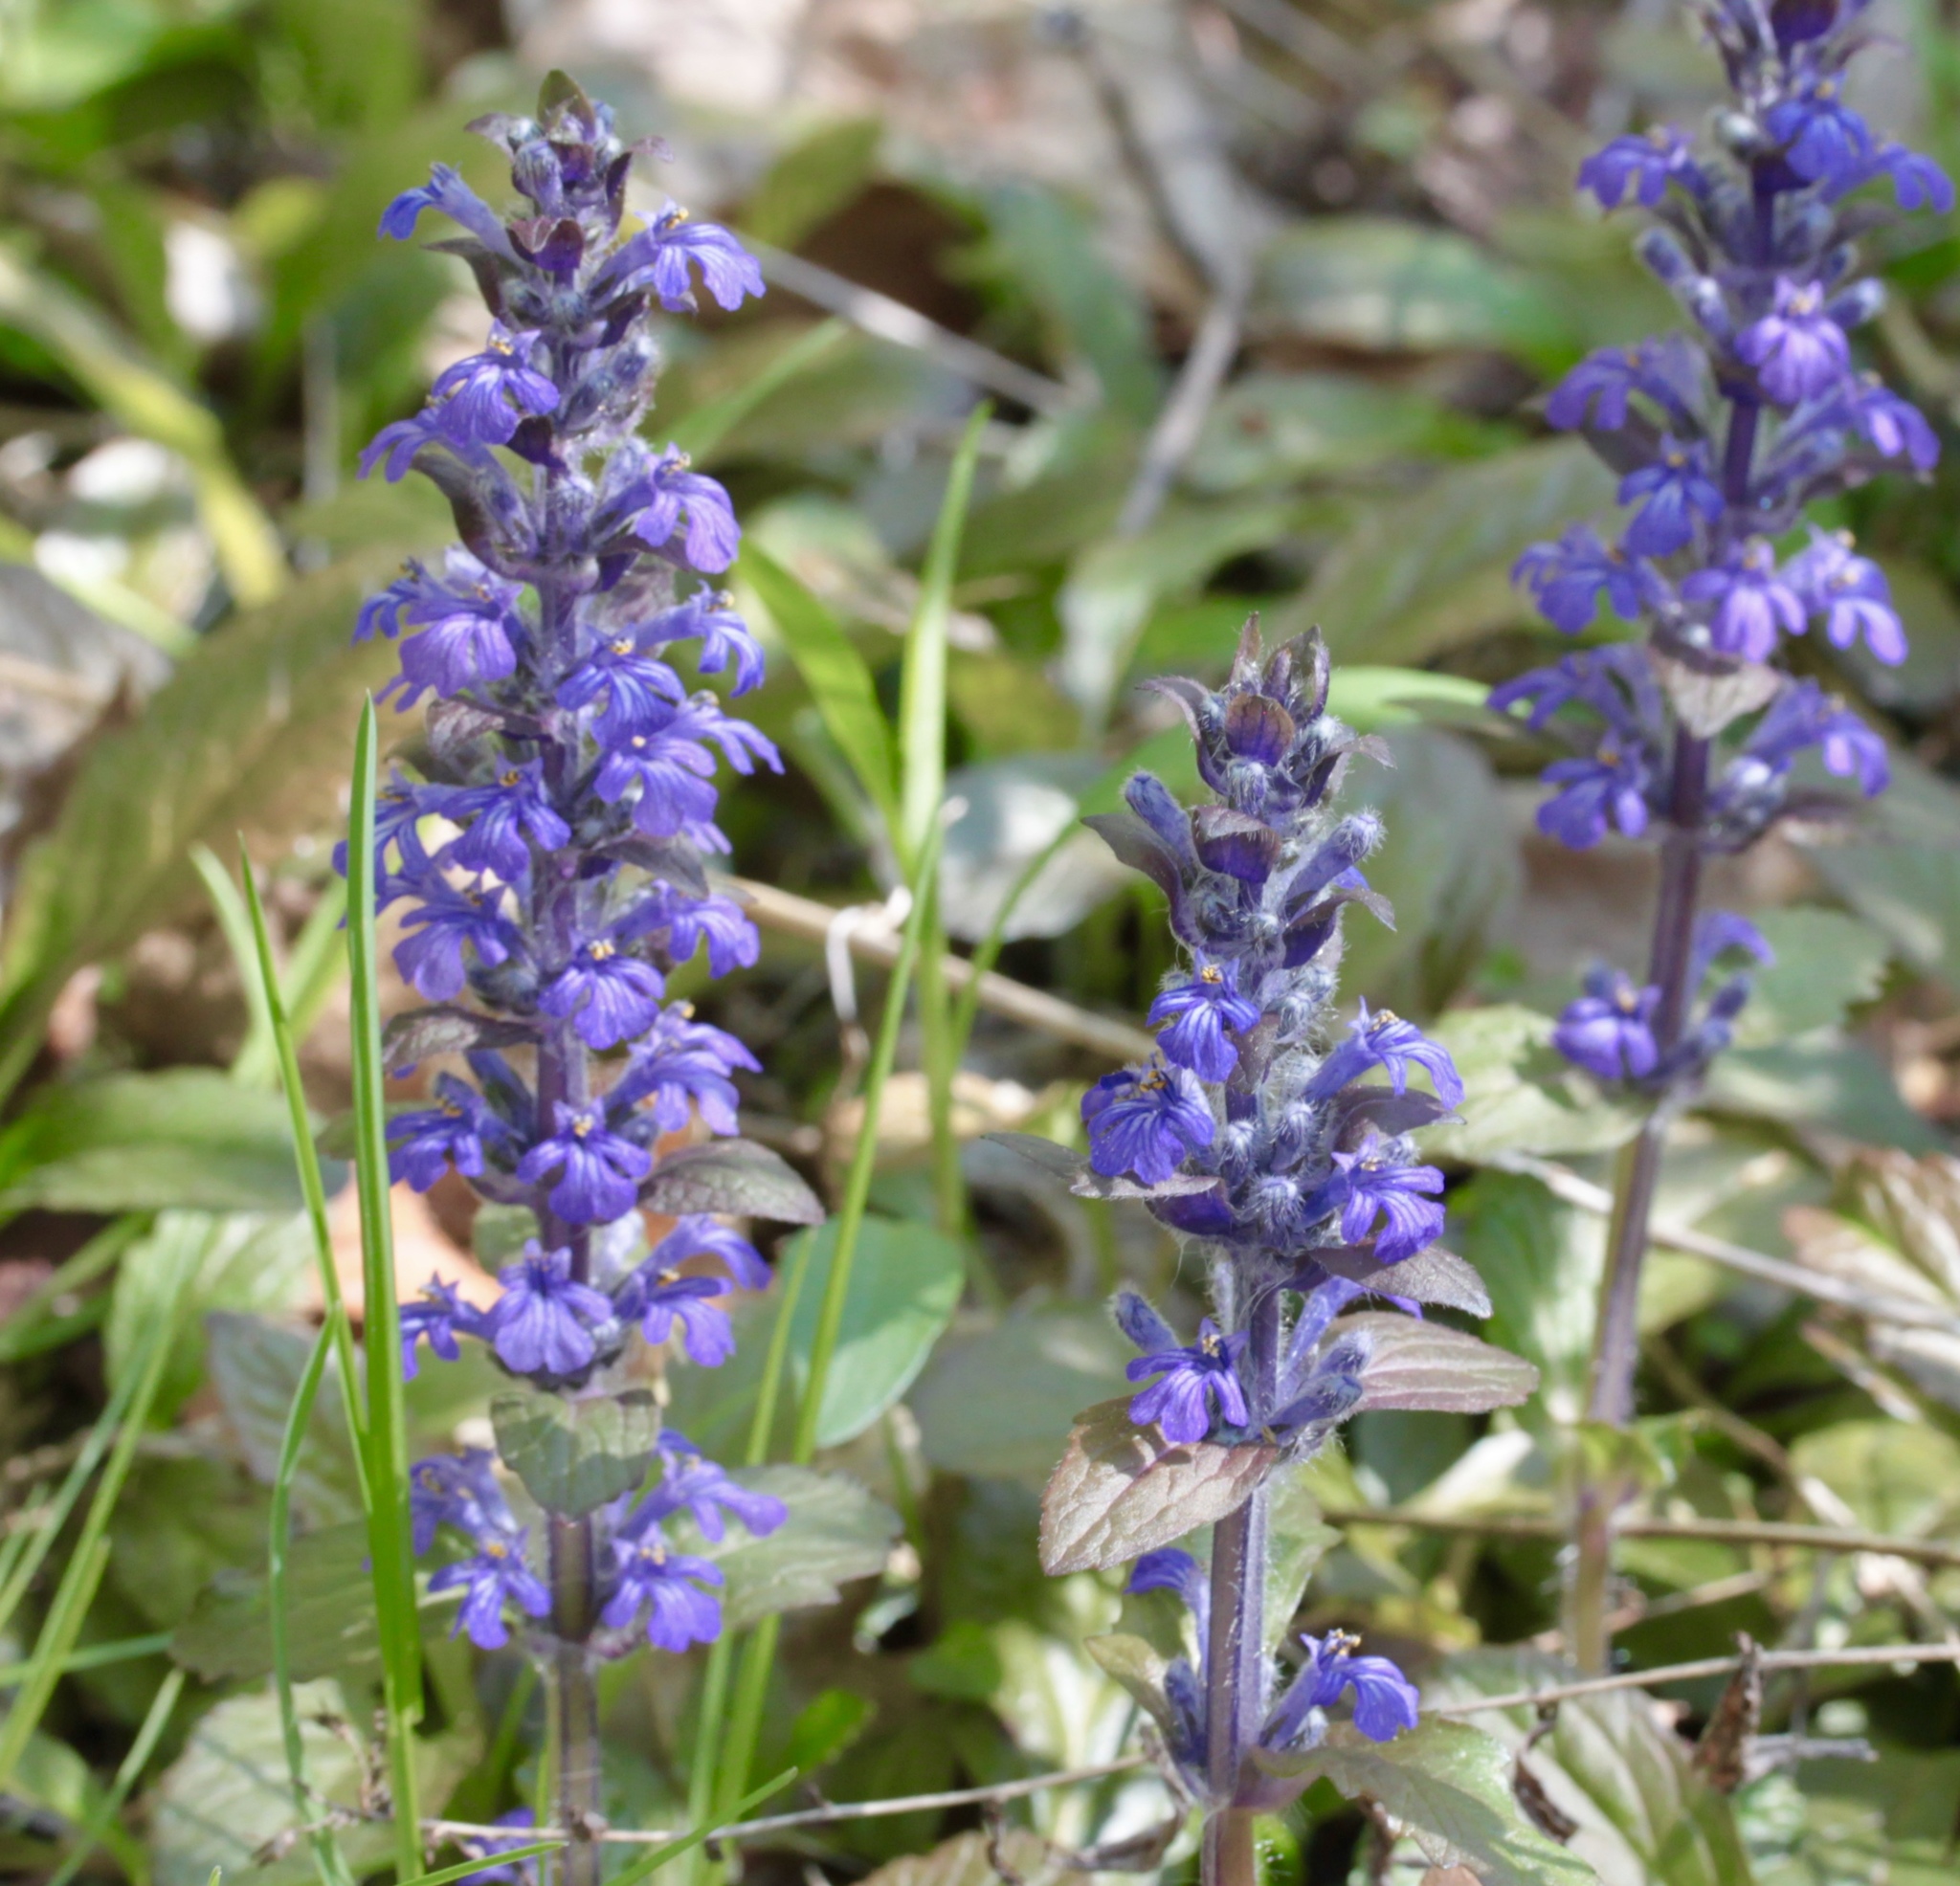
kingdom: Plantae
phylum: Tracheophyta
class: Magnoliopsida
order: Lamiales
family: Lamiaceae
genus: Ajuga
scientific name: Ajuga reptans
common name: Bugle
